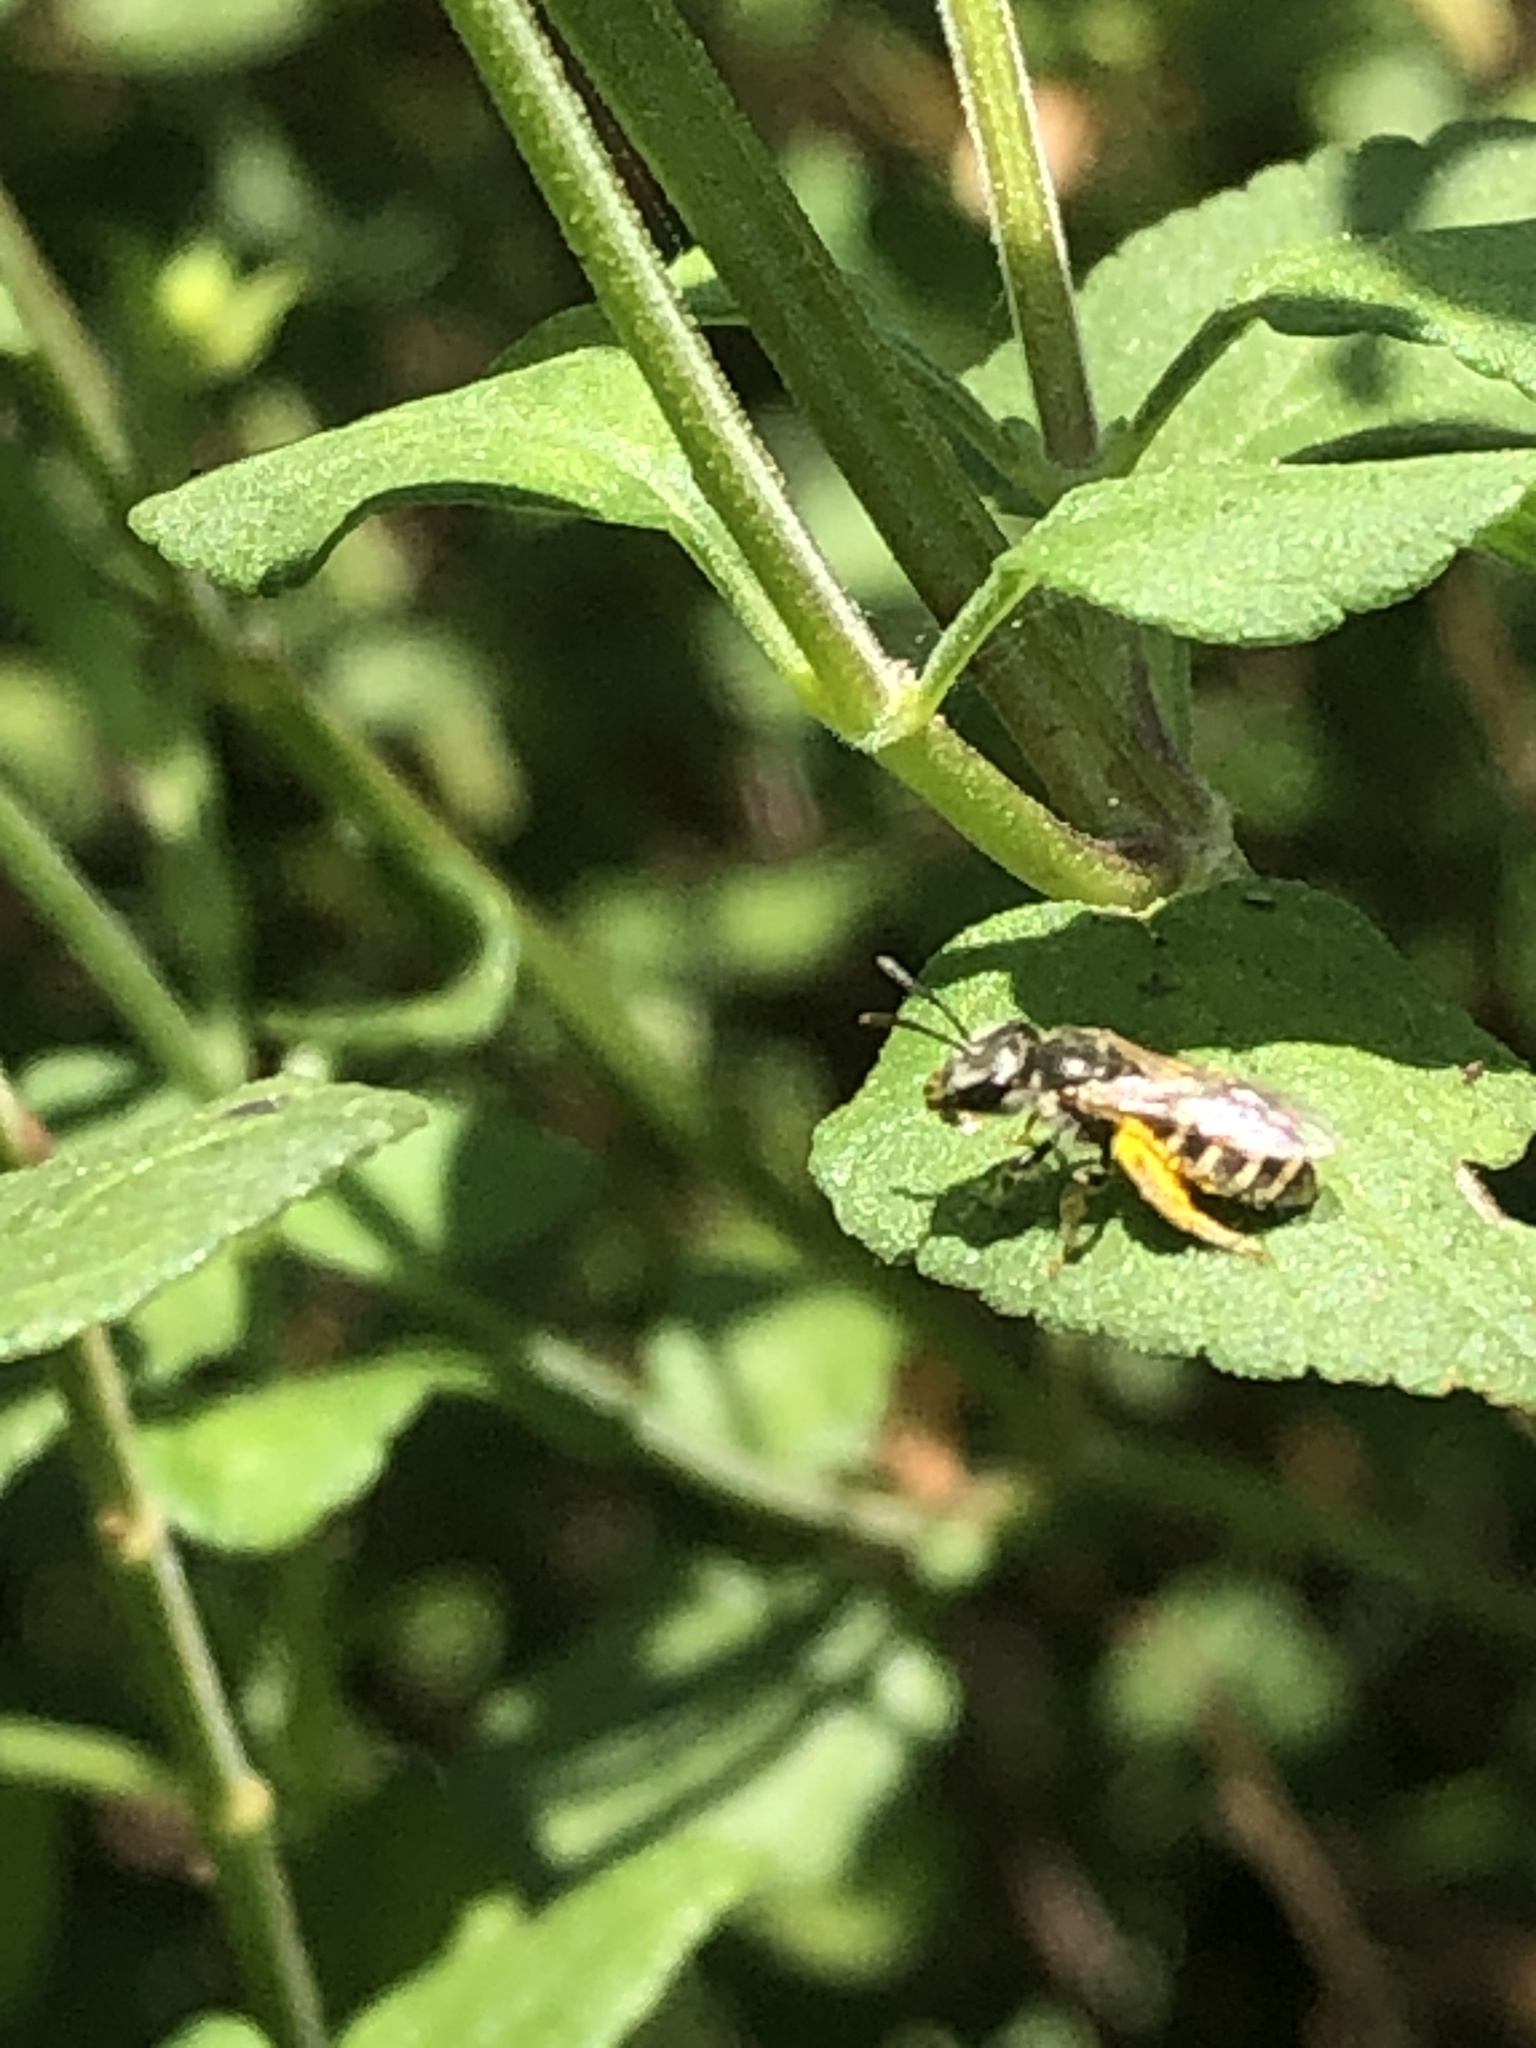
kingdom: Animalia
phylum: Arthropoda
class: Insecta
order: Hymenoptera
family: Halictidae
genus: Halictus
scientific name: Halictus tripartitus
